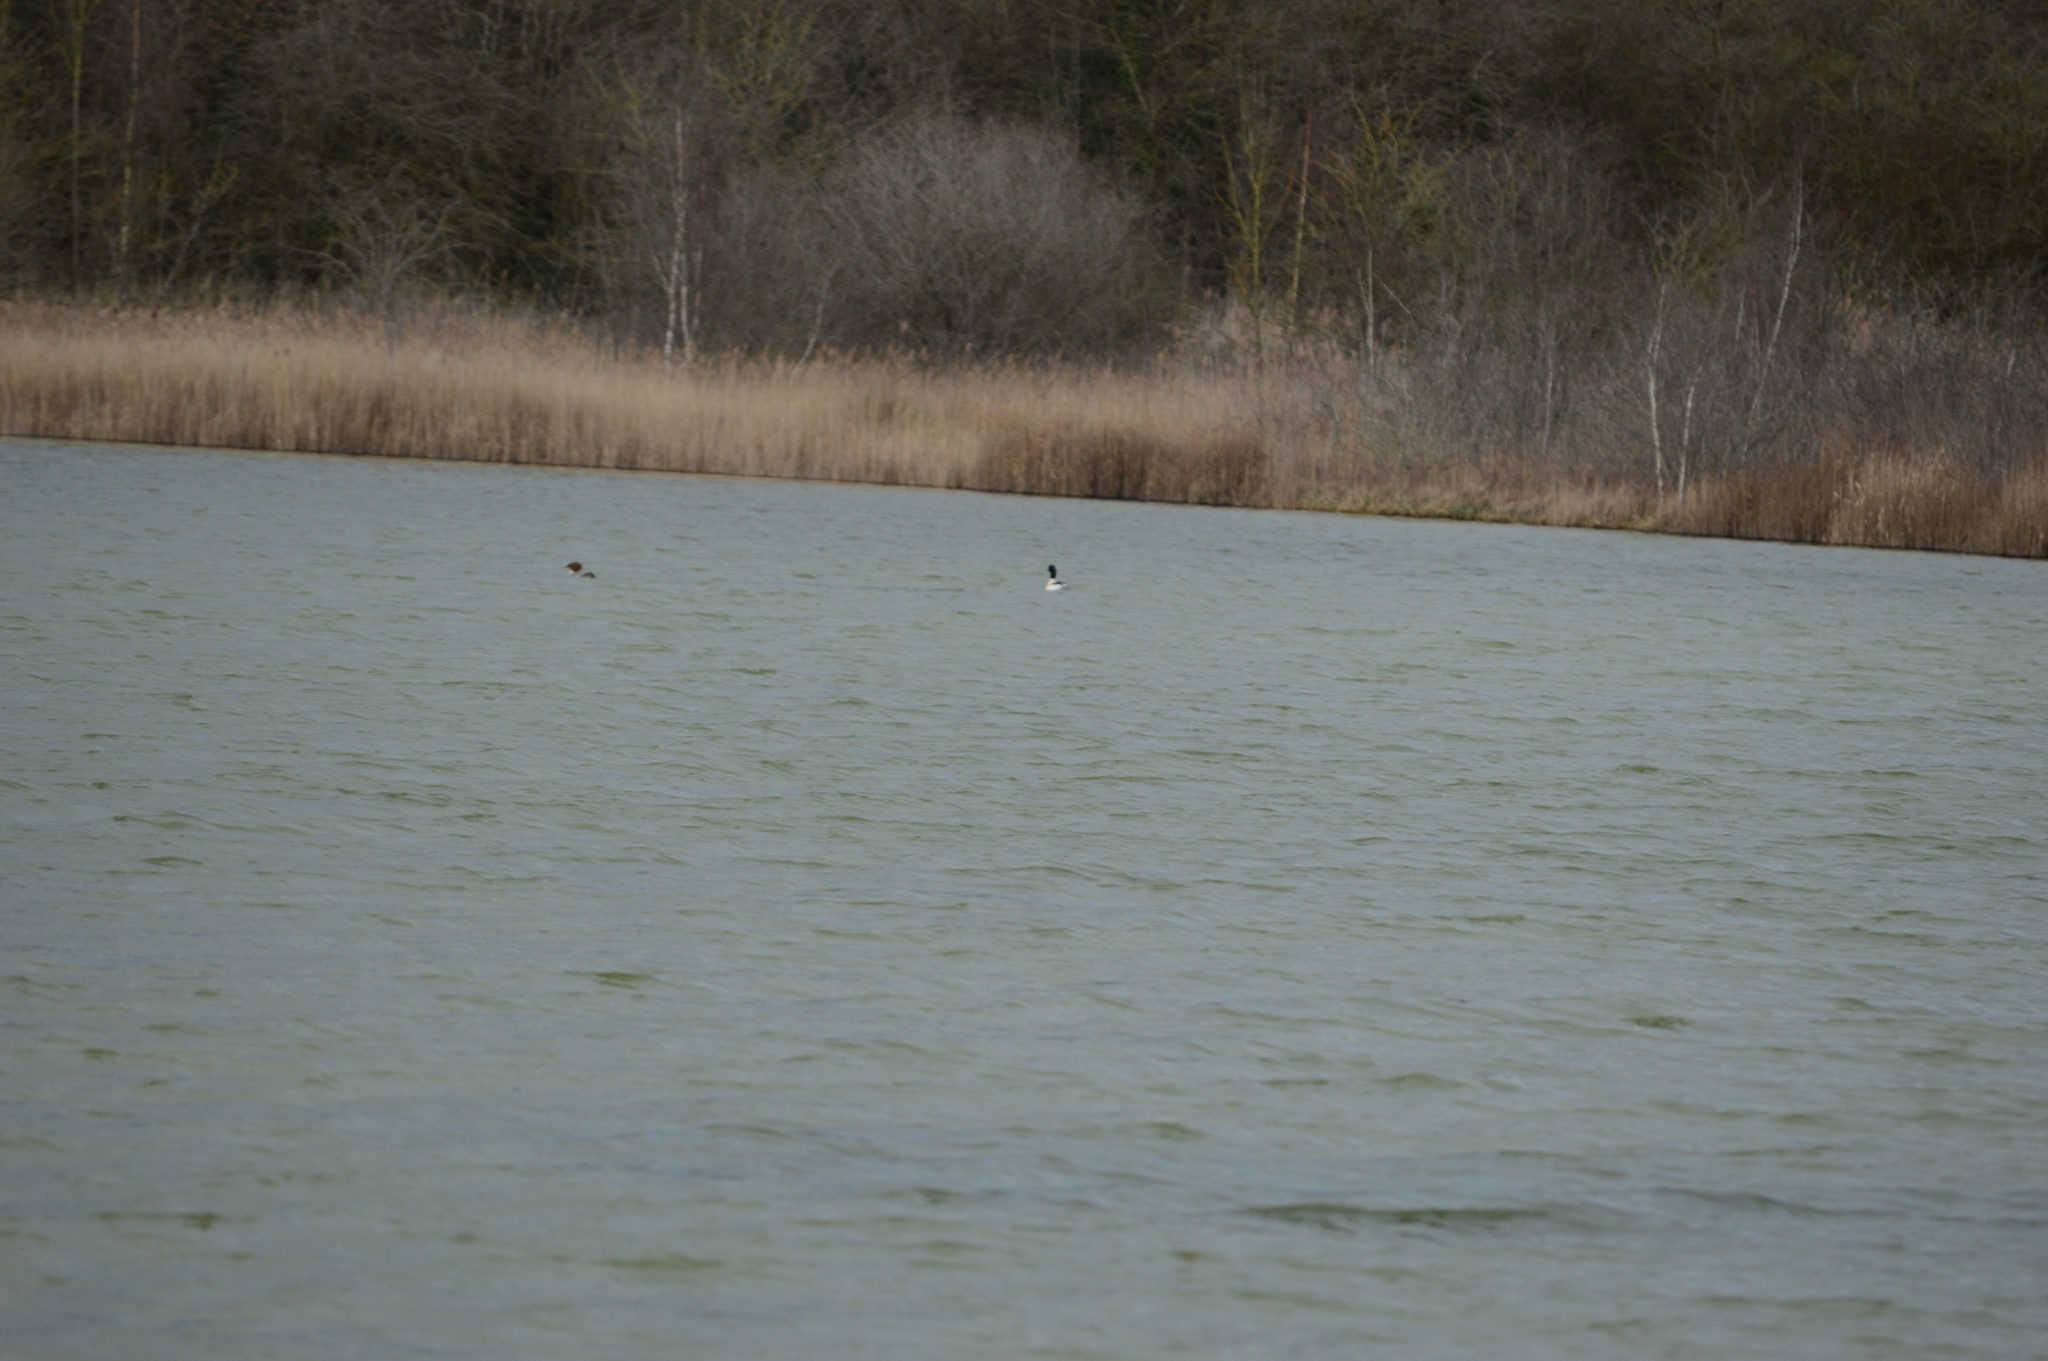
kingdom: Animalia
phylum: Chordata
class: Aves
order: Anseriformes
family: Anatidae
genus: Mergus
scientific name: Mergus merganser
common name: Common merganser
